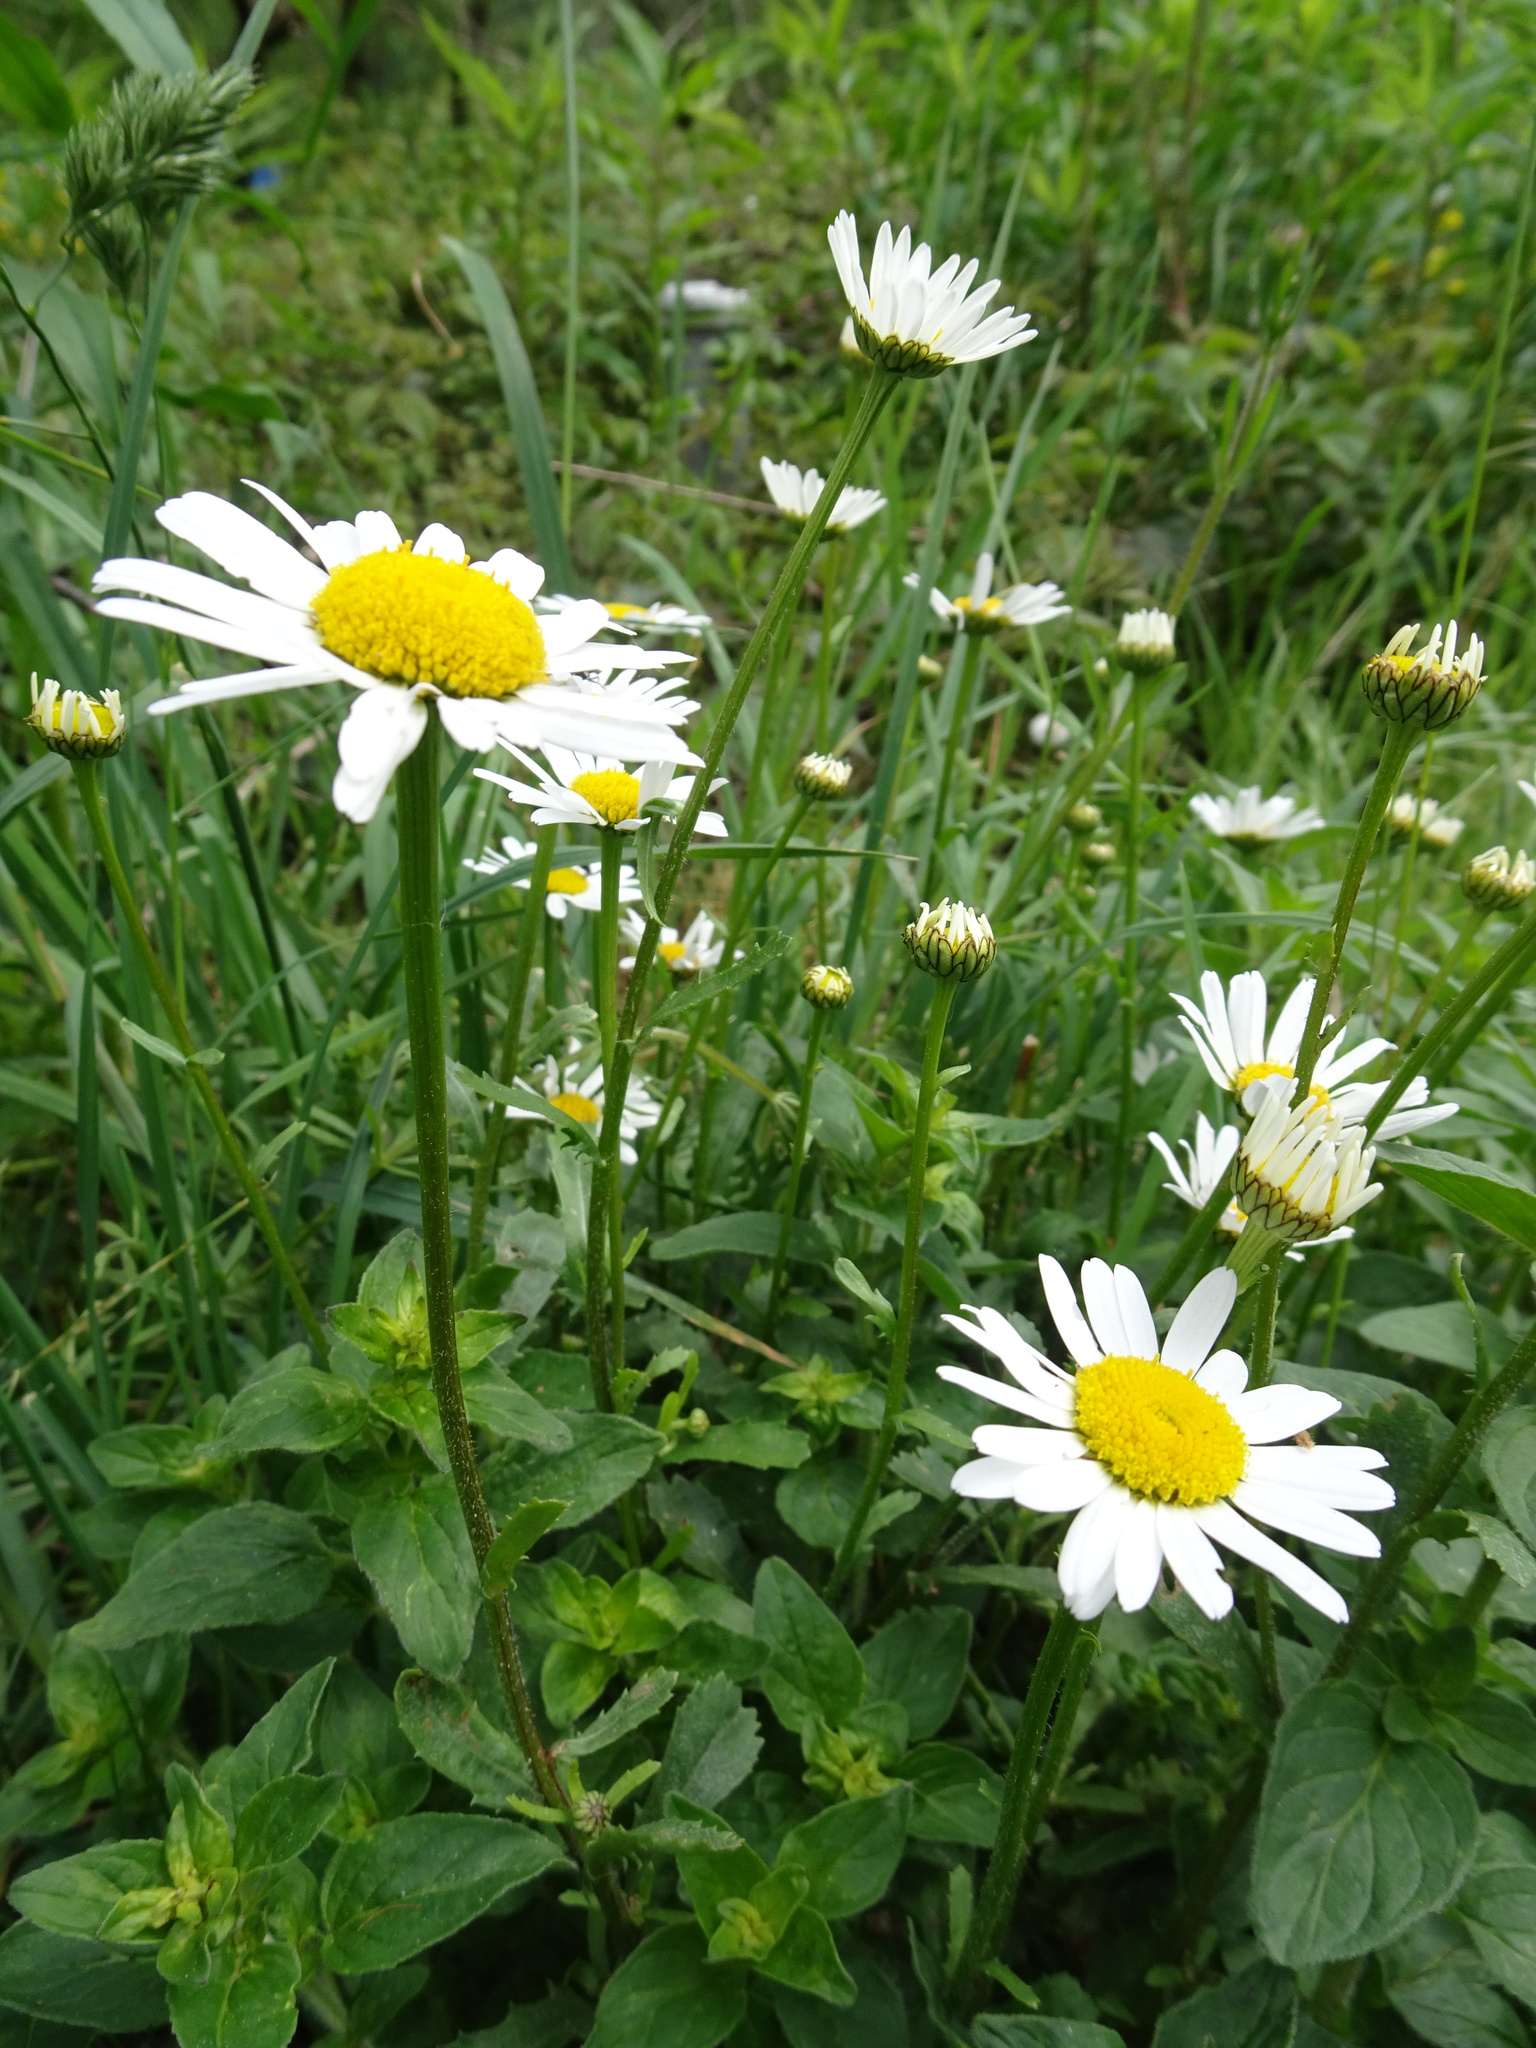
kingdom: Plantae
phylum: Tracheophyta
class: Magnoliopsida
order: Asterales
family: Asteraceae
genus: Leucanthemum
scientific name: Leucanthemum vulgare
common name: Oxeye daisy
